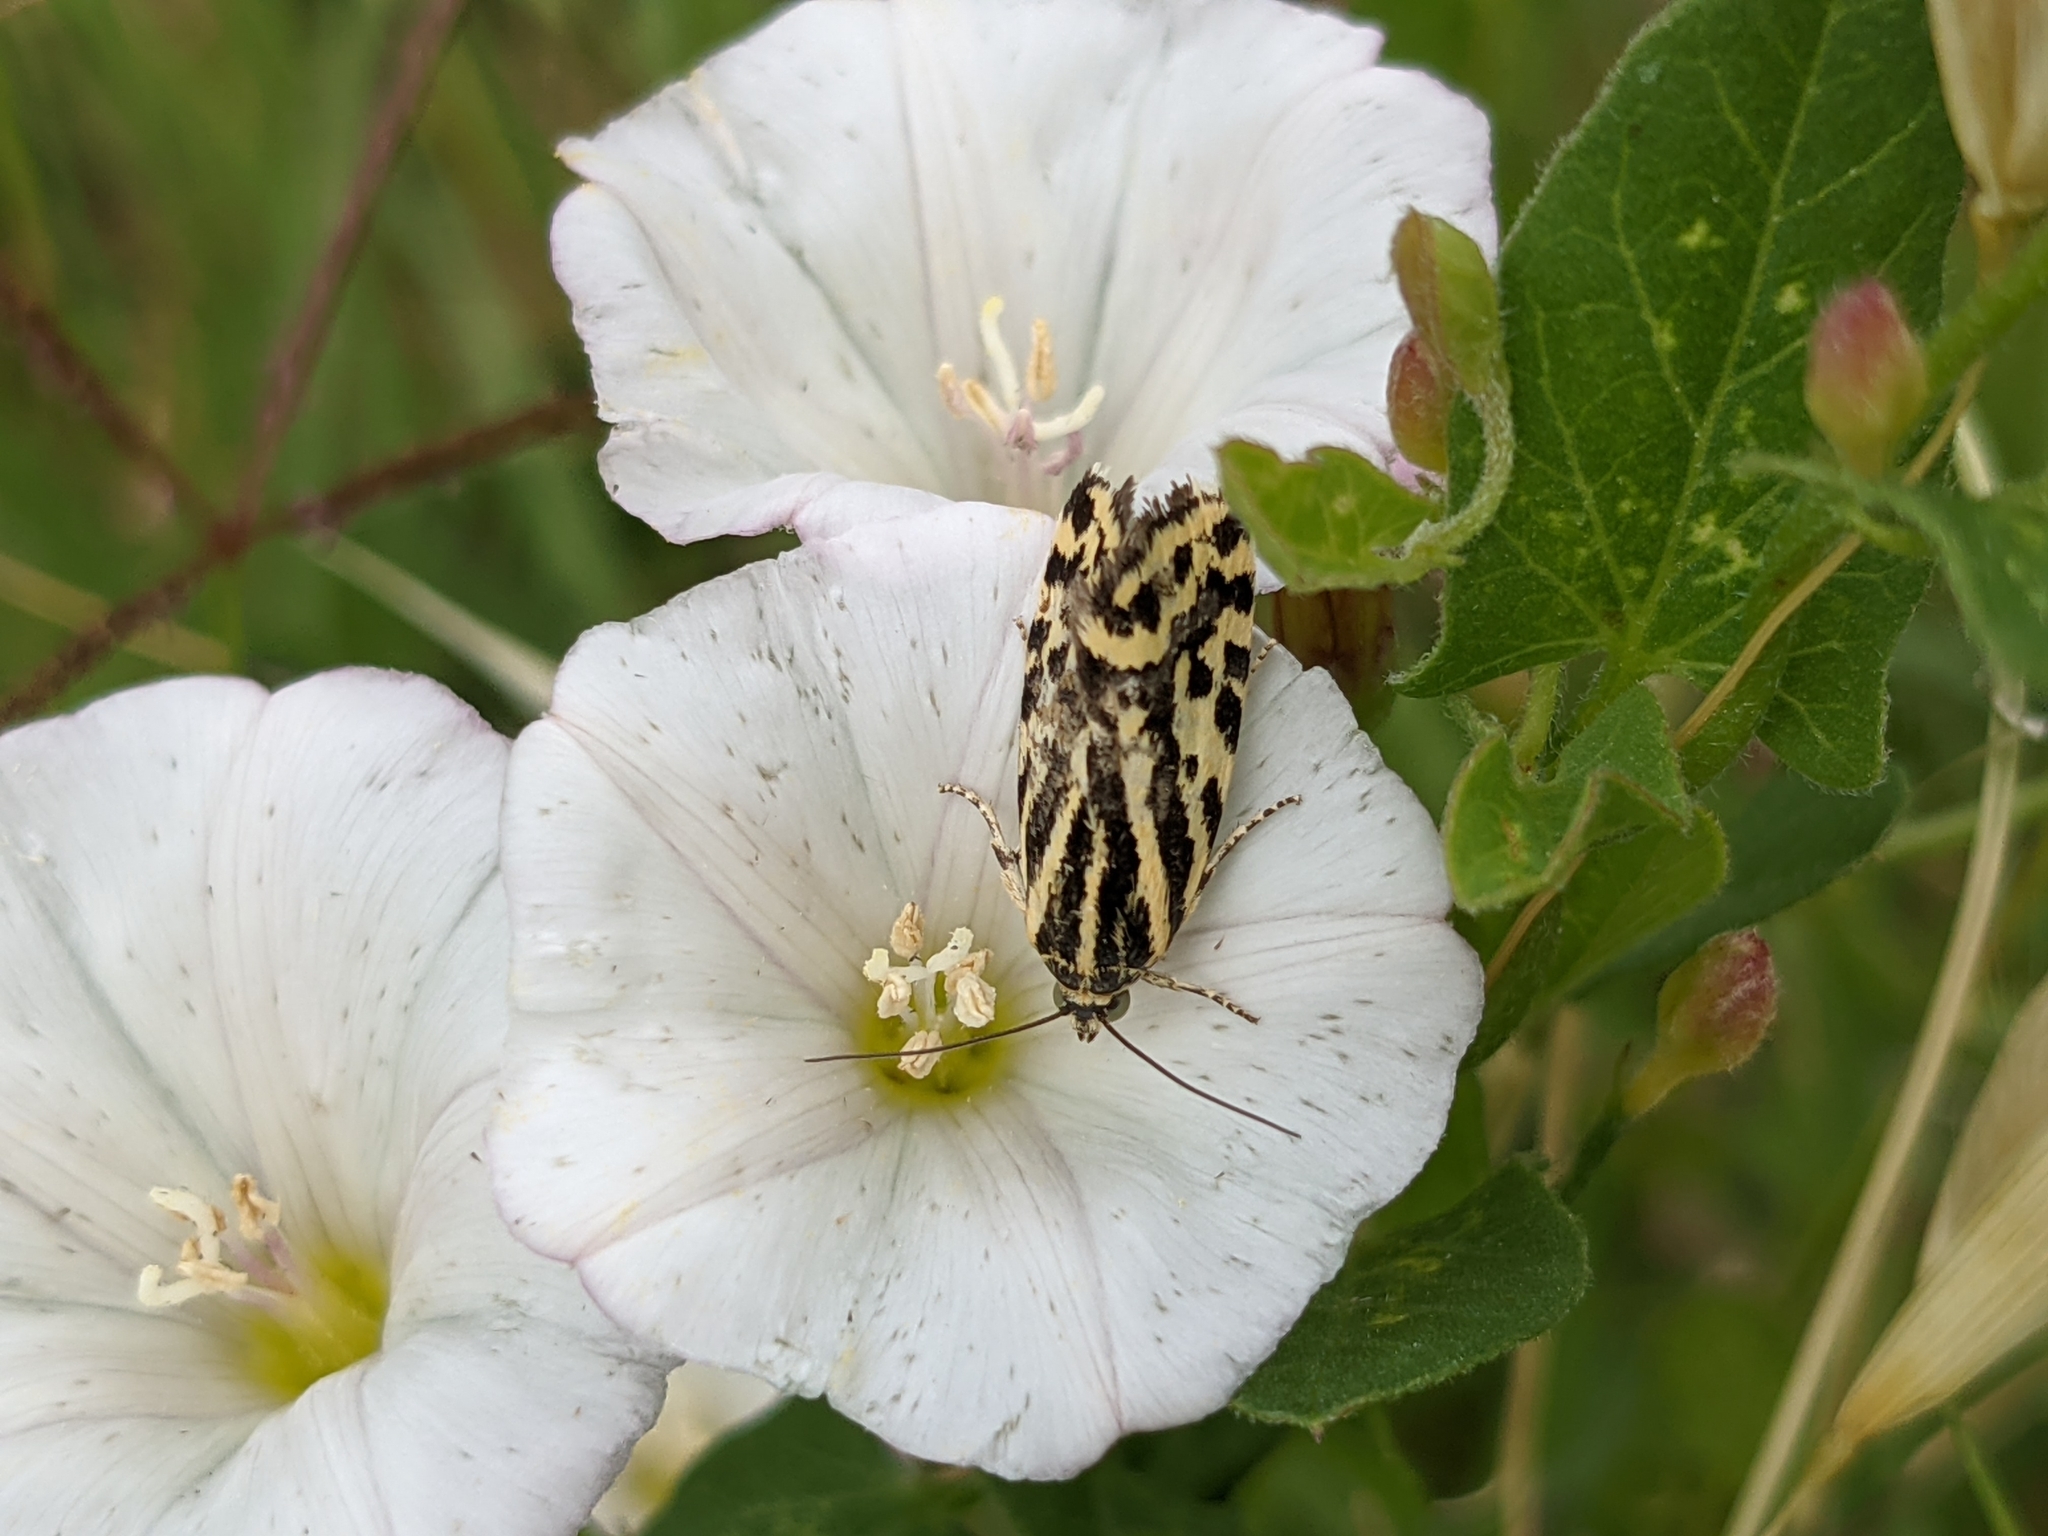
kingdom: Plantae
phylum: Tracheophyta
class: Magnoliopsida
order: Solanales
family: Convolvulaceae
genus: Convolvulus
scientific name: Convolvulus arvensis
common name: Field bindweed
